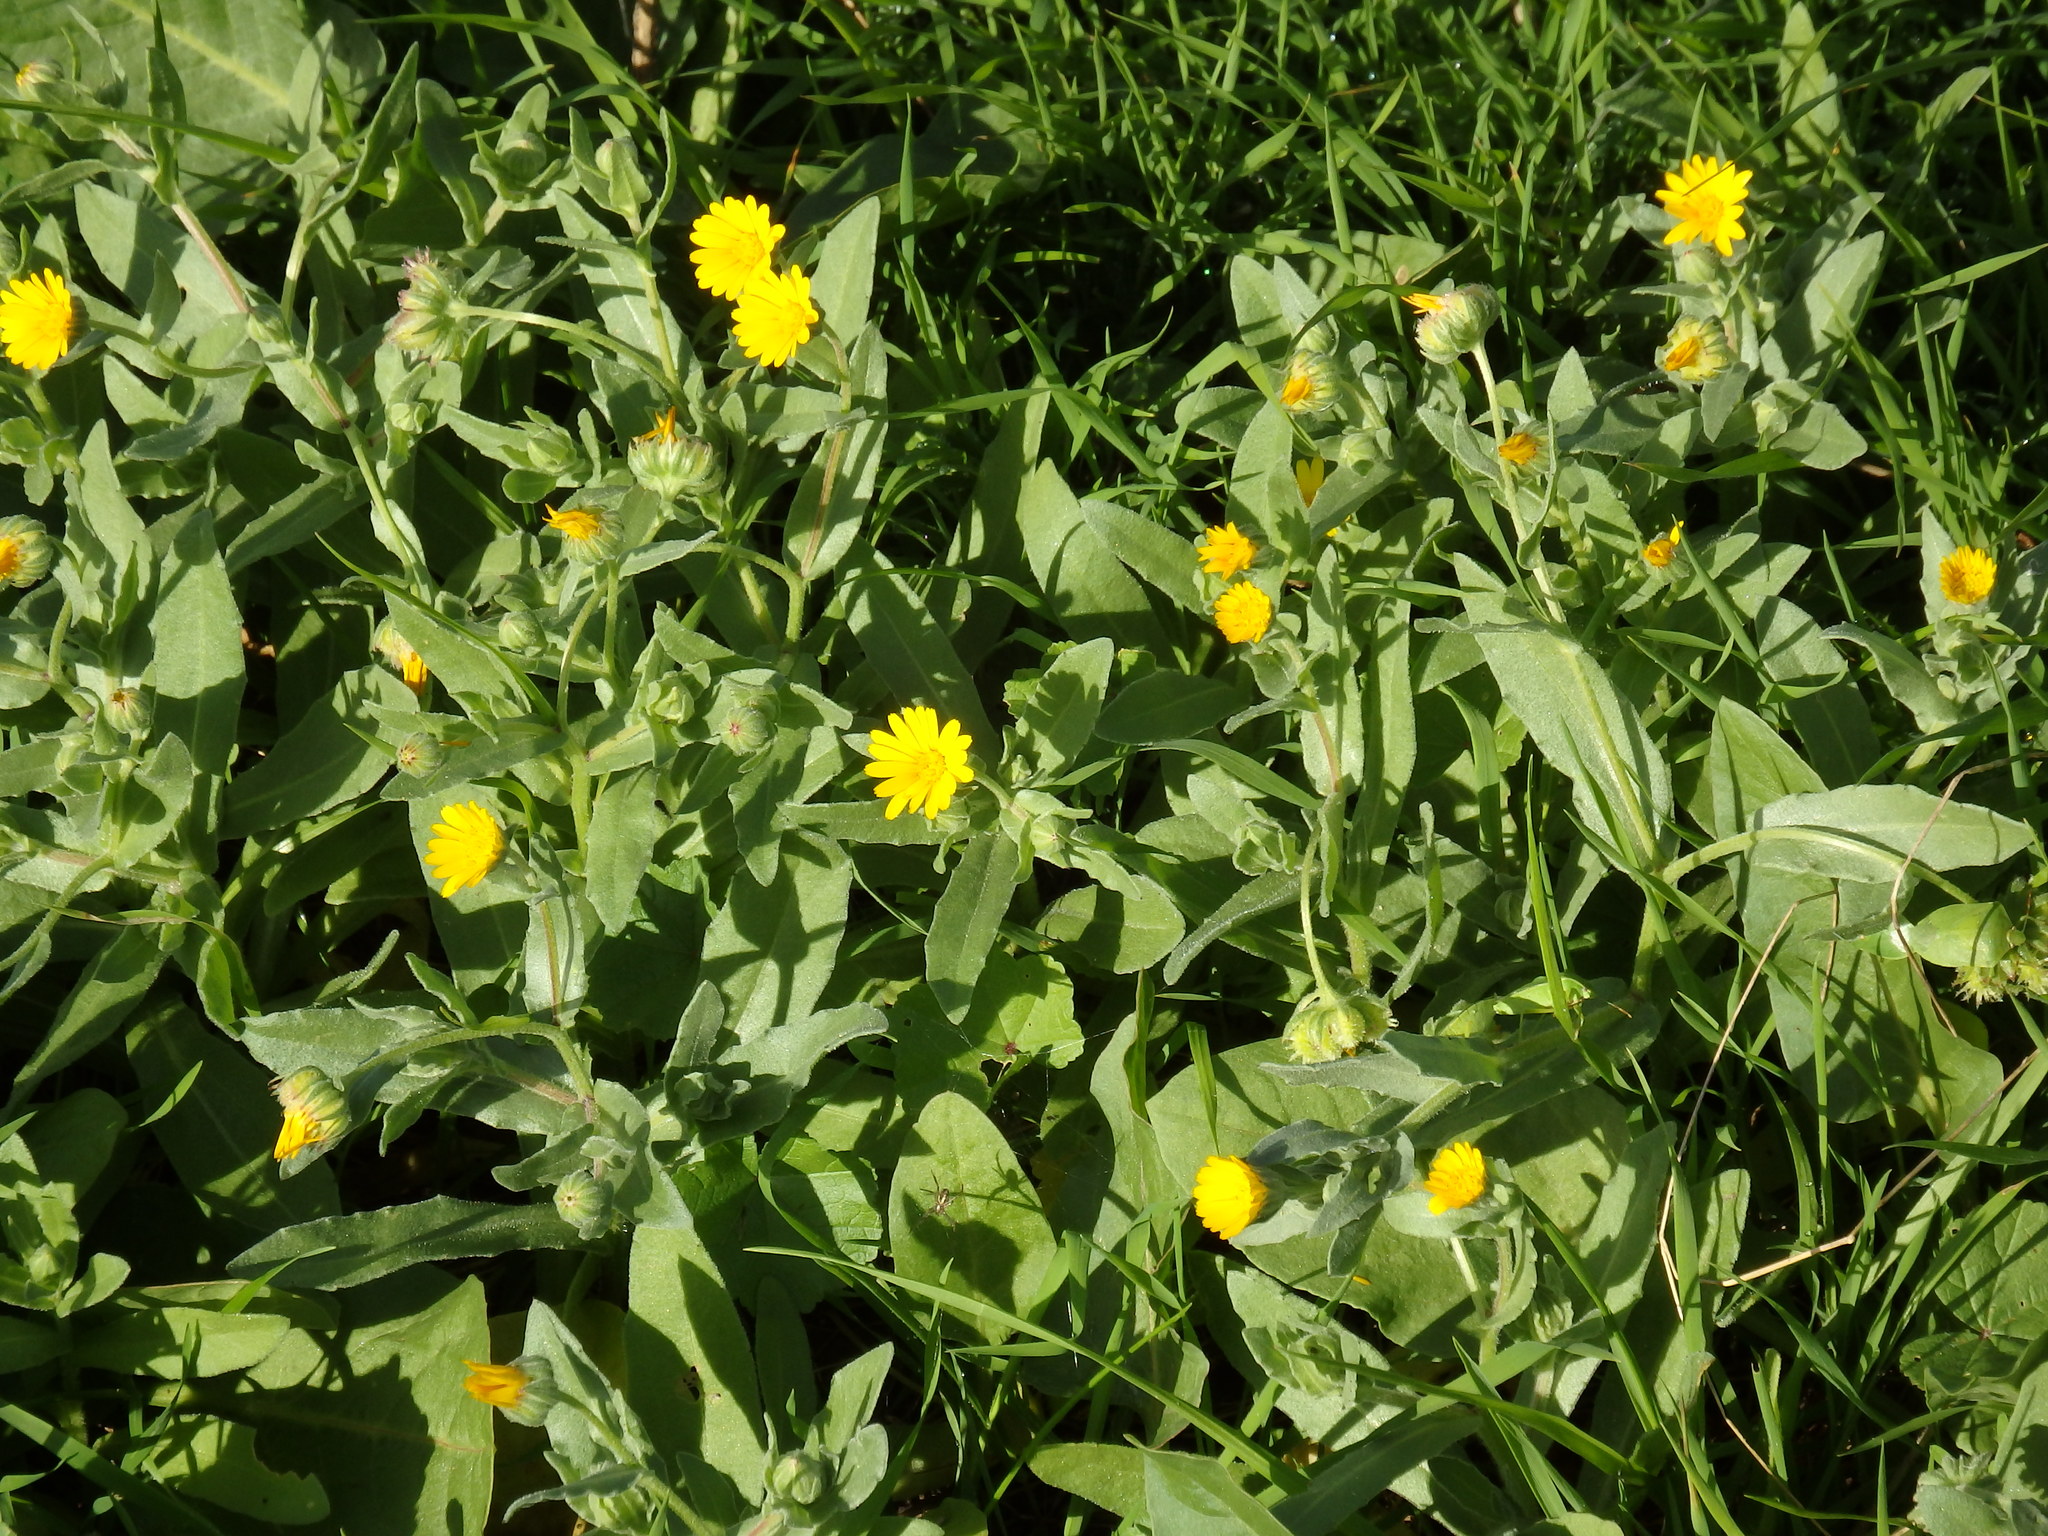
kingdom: Plantae
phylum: Tracheophyta
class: Magnoliopsida
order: Asterales
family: Asteraceae
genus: Calendula
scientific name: Calendula arvensis
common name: Field marigold
